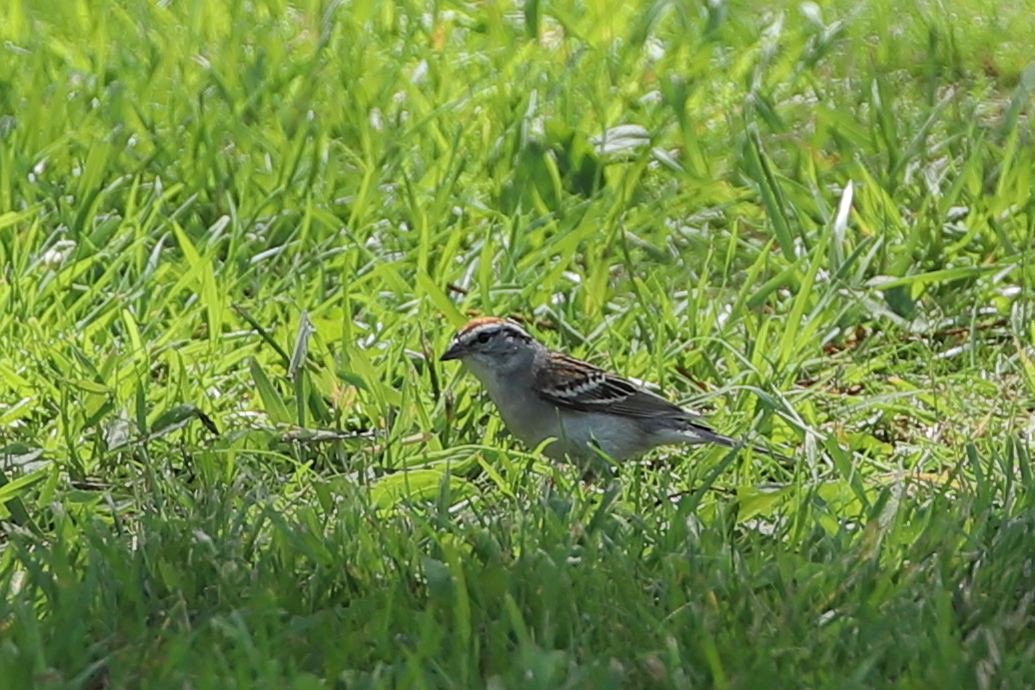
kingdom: Animalia
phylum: Chordata
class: Aves
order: Passeriformes
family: Passerellidae
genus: Spizella
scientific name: Spizella passerina
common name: Chipping sparrow
